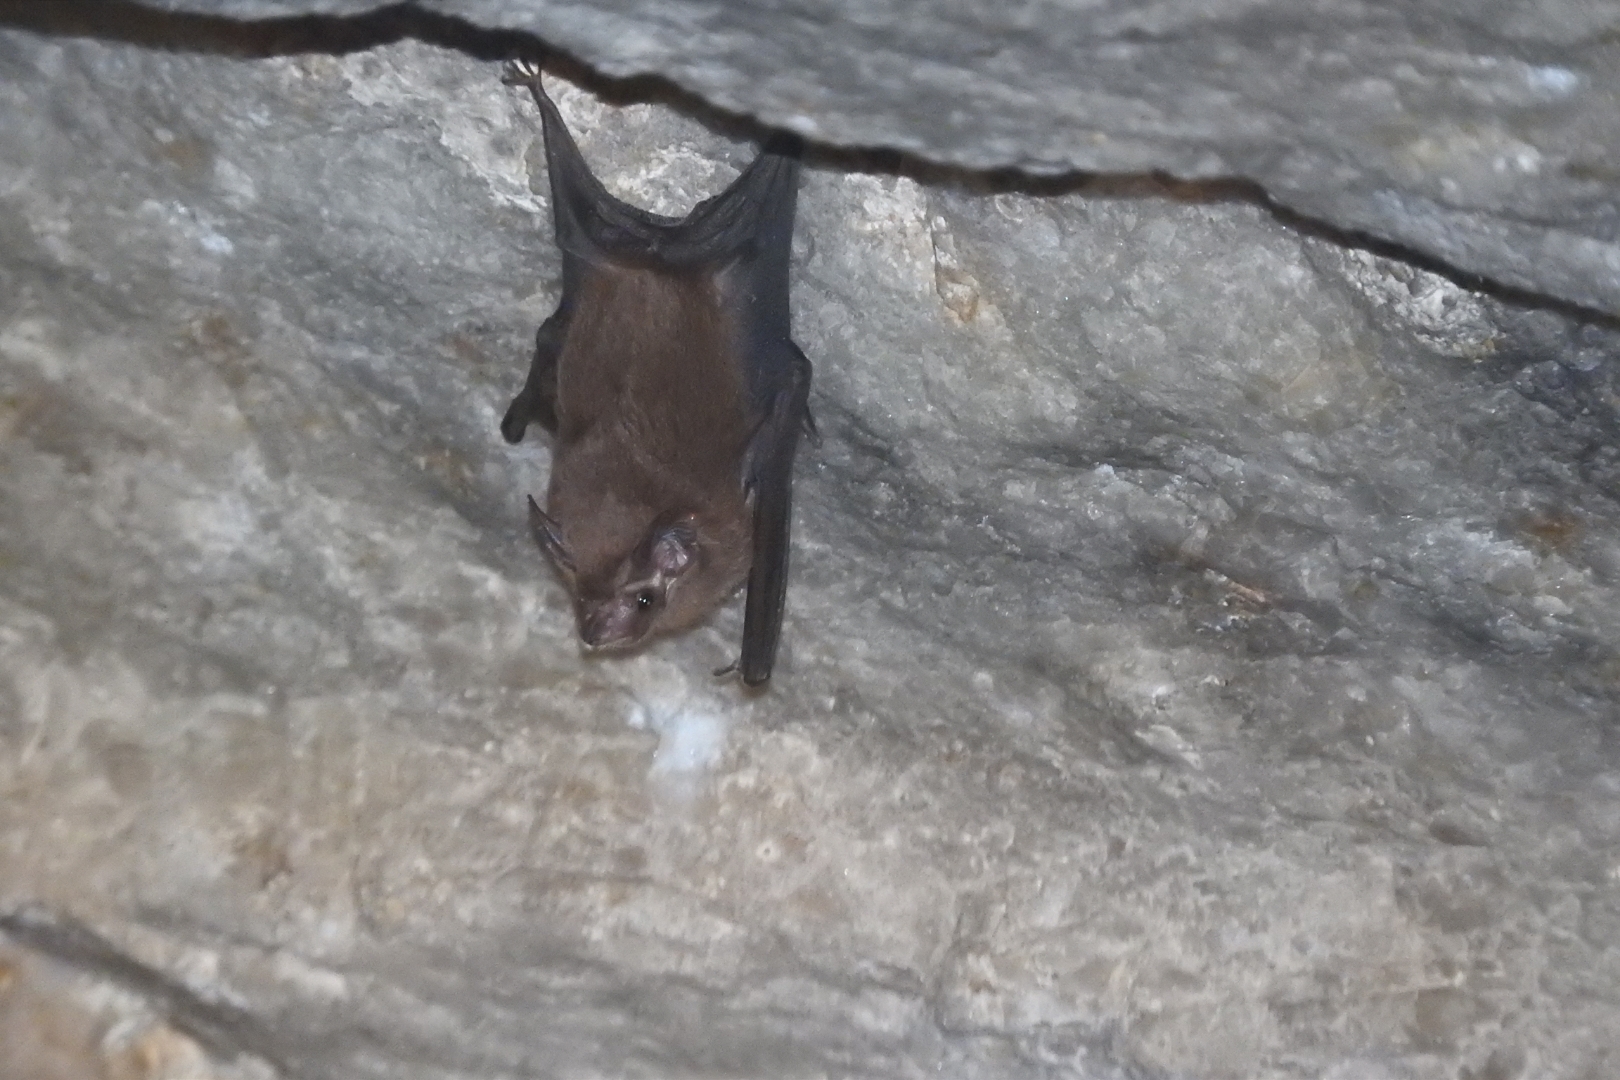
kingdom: Animalia
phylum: Chordata
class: Mammalia
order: Chiroptera
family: Emballonuridae
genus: Peropteryx
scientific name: Peropteryx macrotis
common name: Lesser dog-like bat
